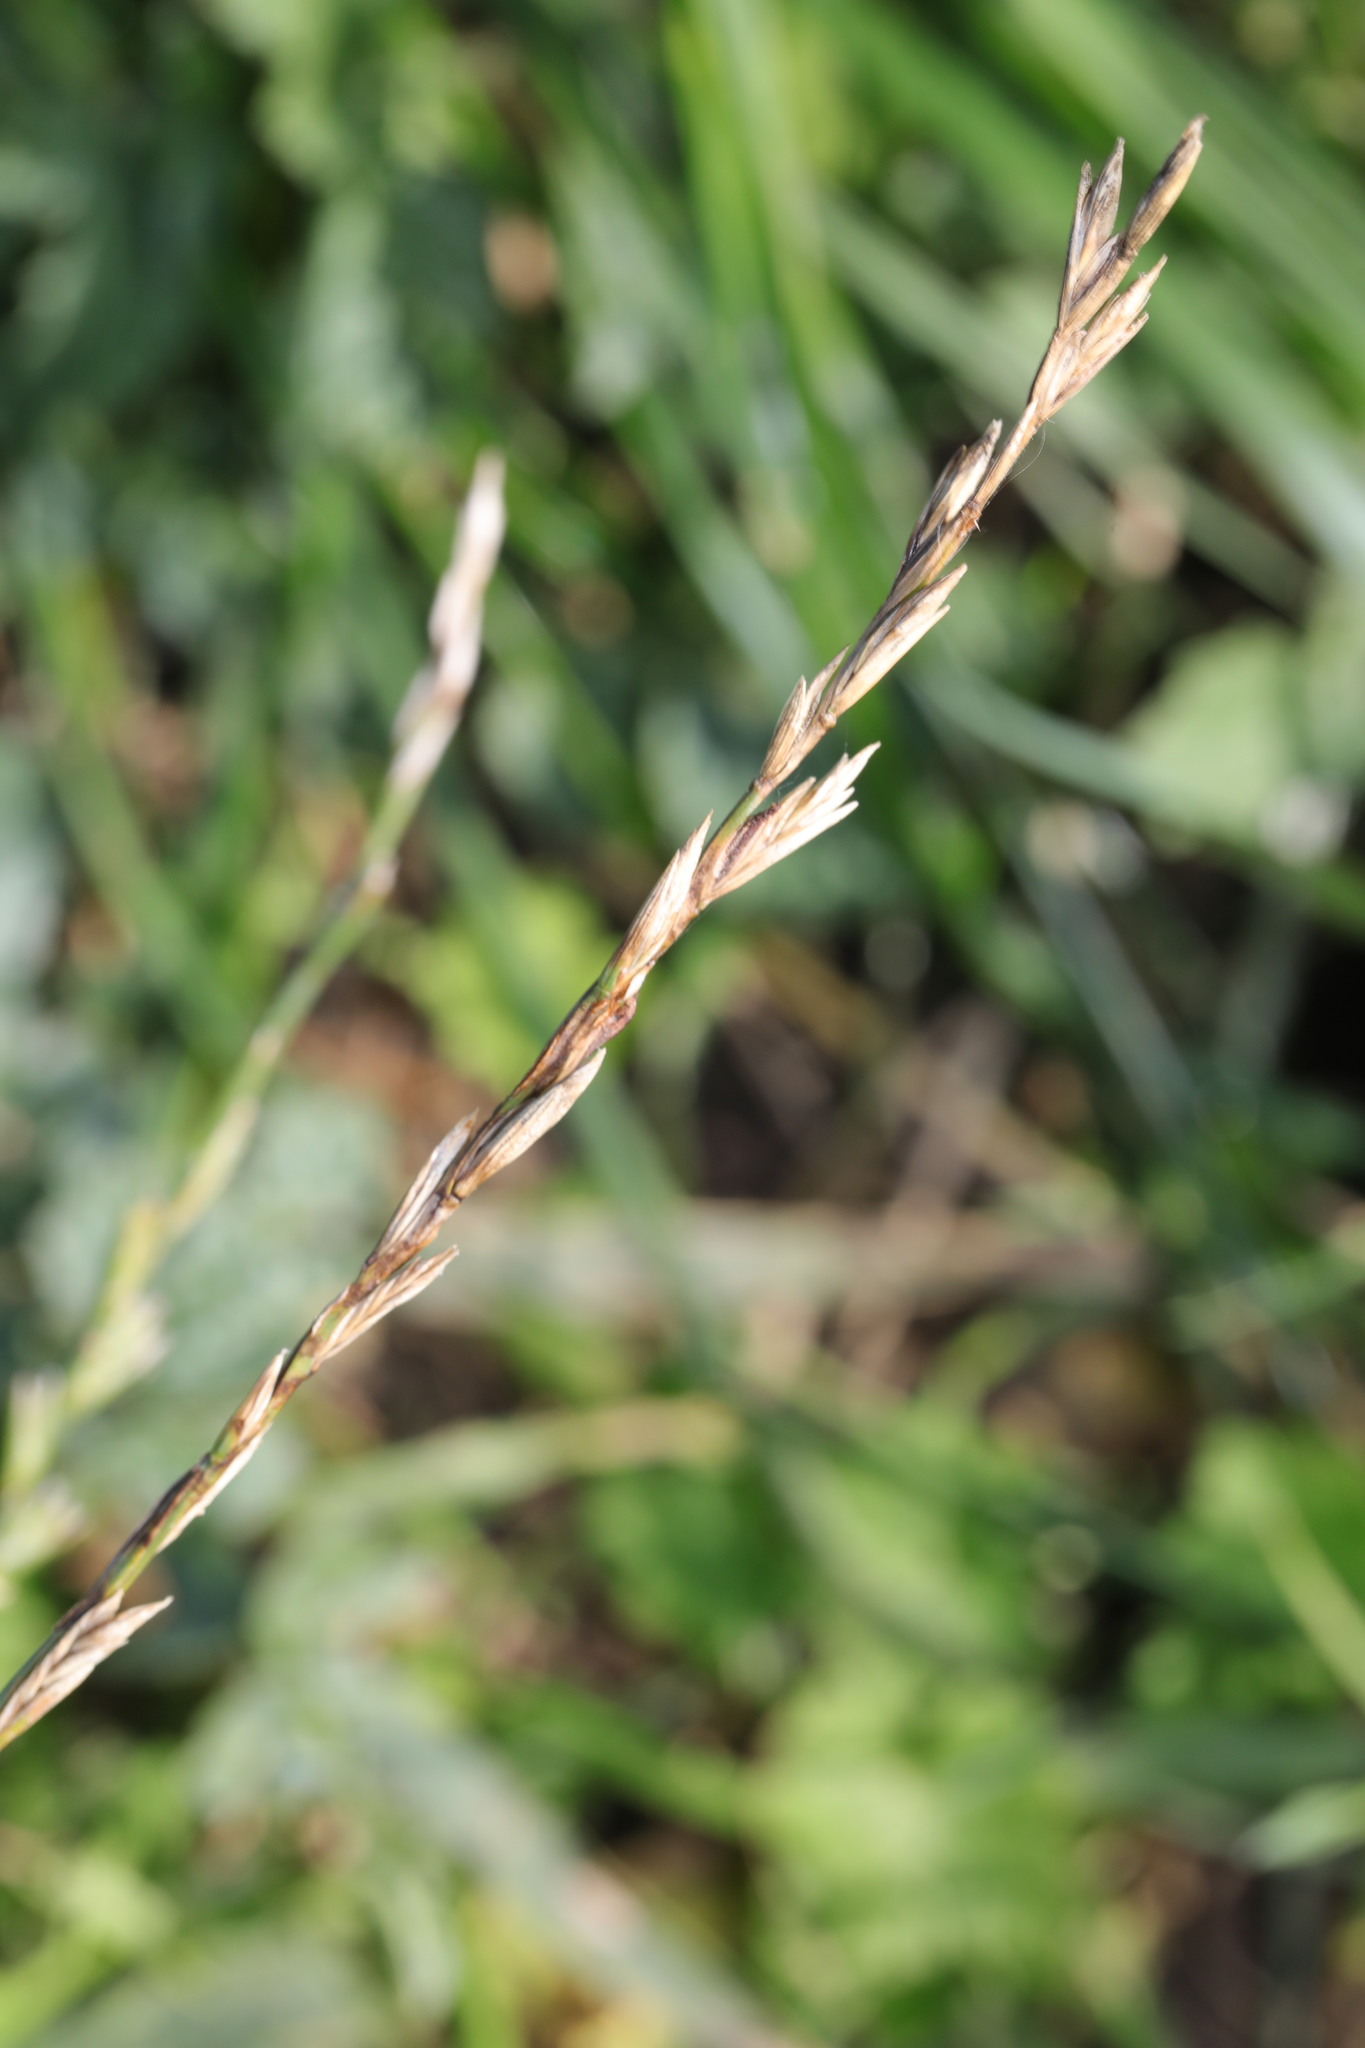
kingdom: Plantae
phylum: Tracheophyta
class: Liliopsida
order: Poales
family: Poaceae
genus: Lolium
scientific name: Lolium perenne
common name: Perennial ryegrass
